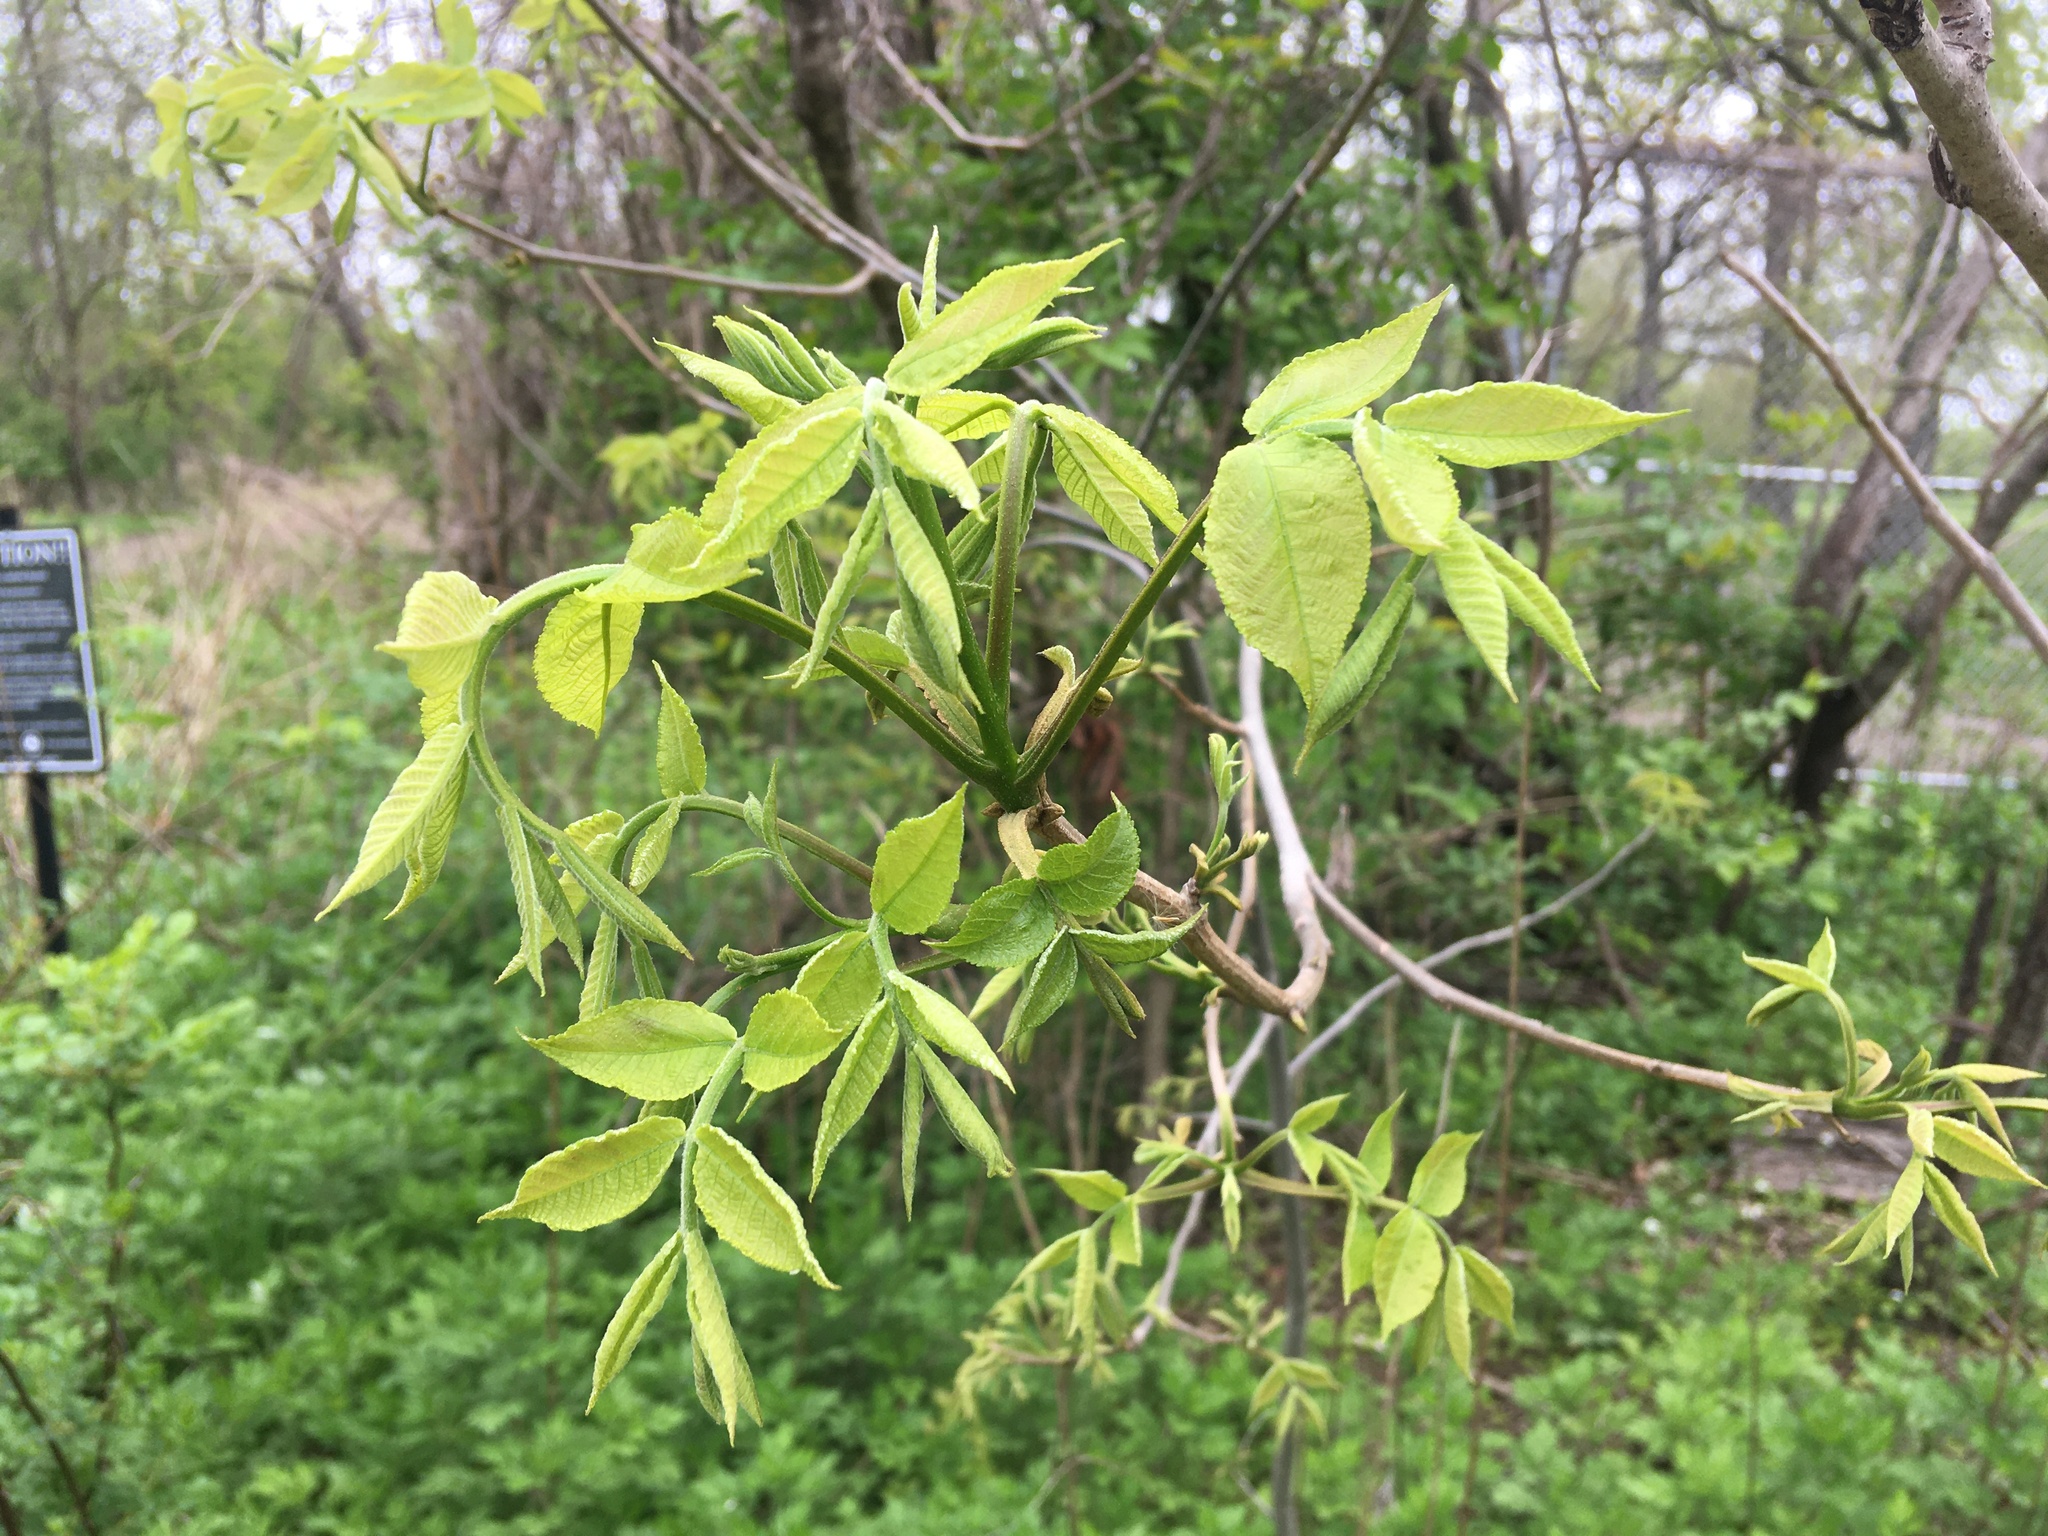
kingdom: Plantae
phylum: Tracheophyta
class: Magnoliopsida
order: Fagales
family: Juglandaceae
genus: Carya
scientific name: Carya cordiformis
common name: Bitternut hickory
